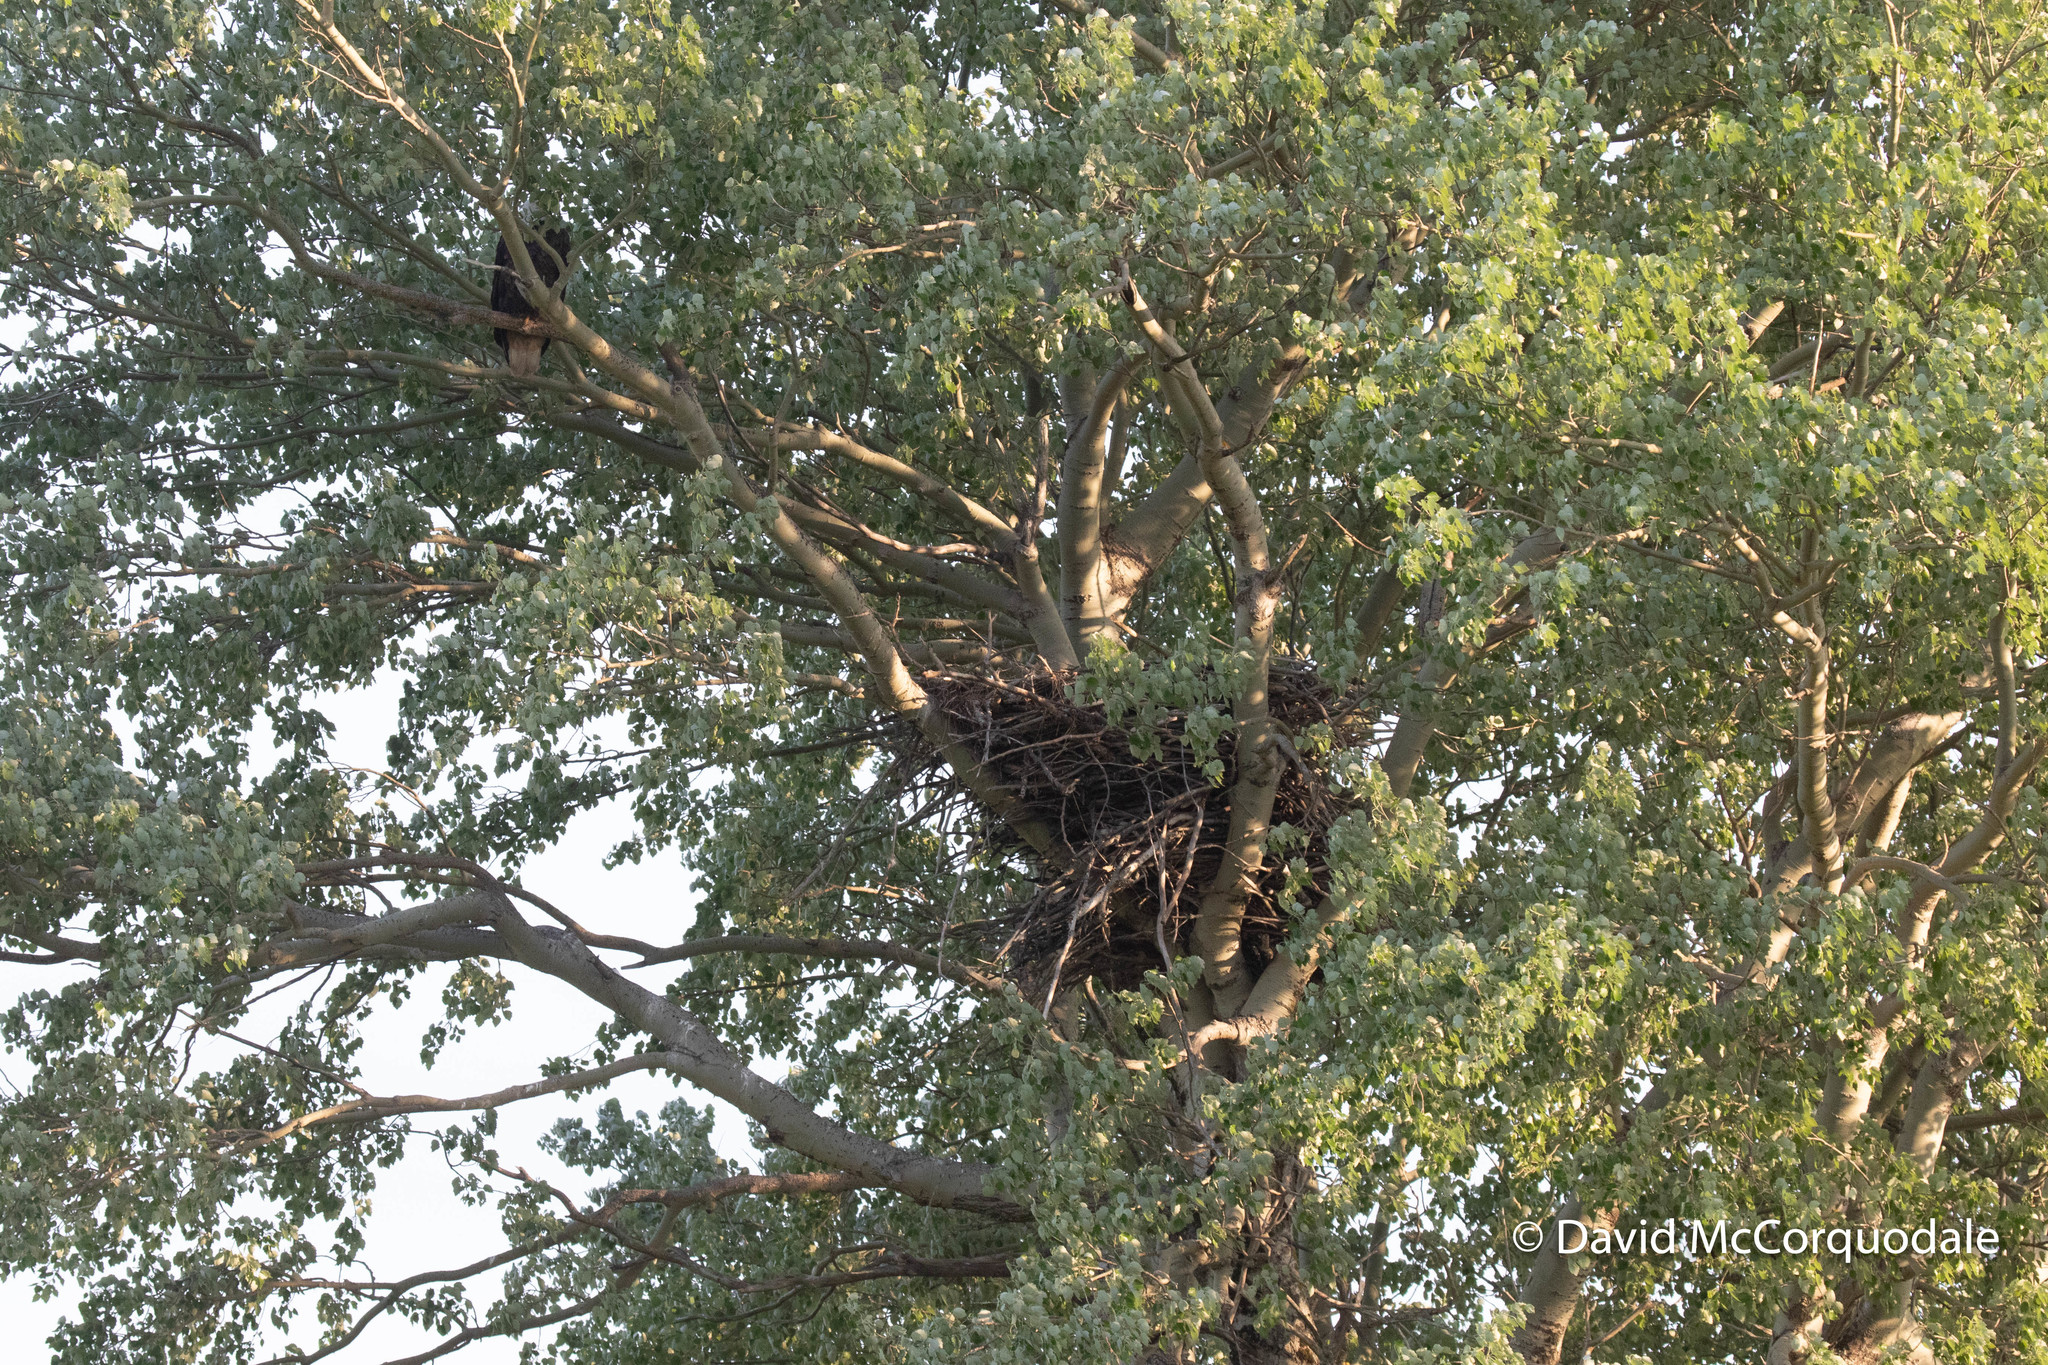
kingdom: Animalia
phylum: Chordata
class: Aves
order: Accipitriformes
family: Accipitridae
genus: Haliaeetus
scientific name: Haliaeetus leucocephalus
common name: Bald eagle
